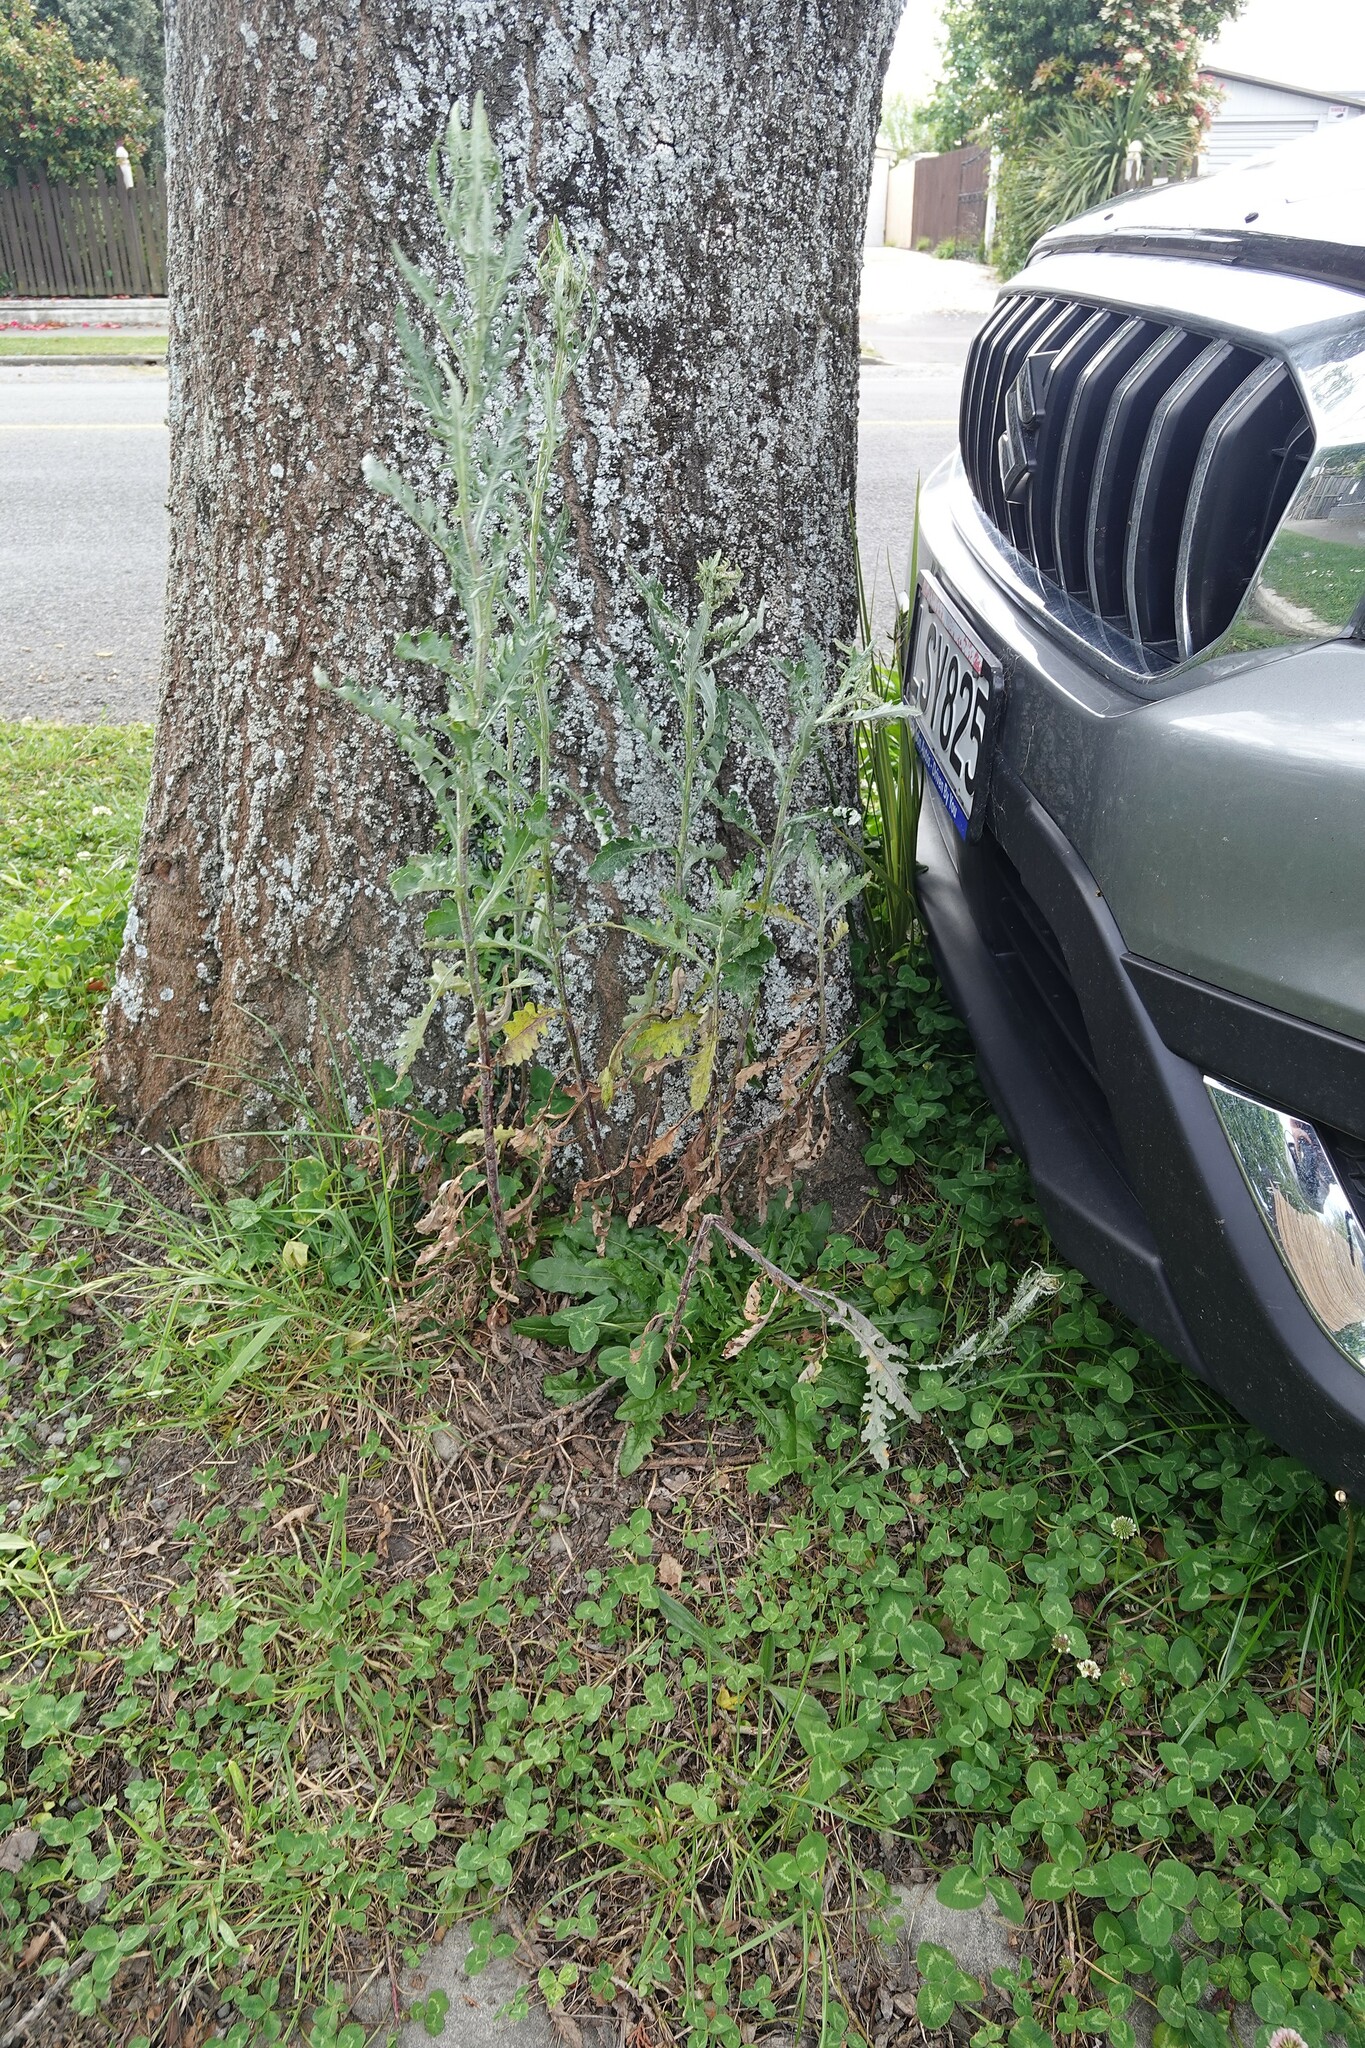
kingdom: Plantae
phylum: Tracheophyta
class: Magnoliopsida
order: Asterales
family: Asteraceae
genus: Senecio
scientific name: Senecio glomeratus
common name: Cutleaf burnweed
